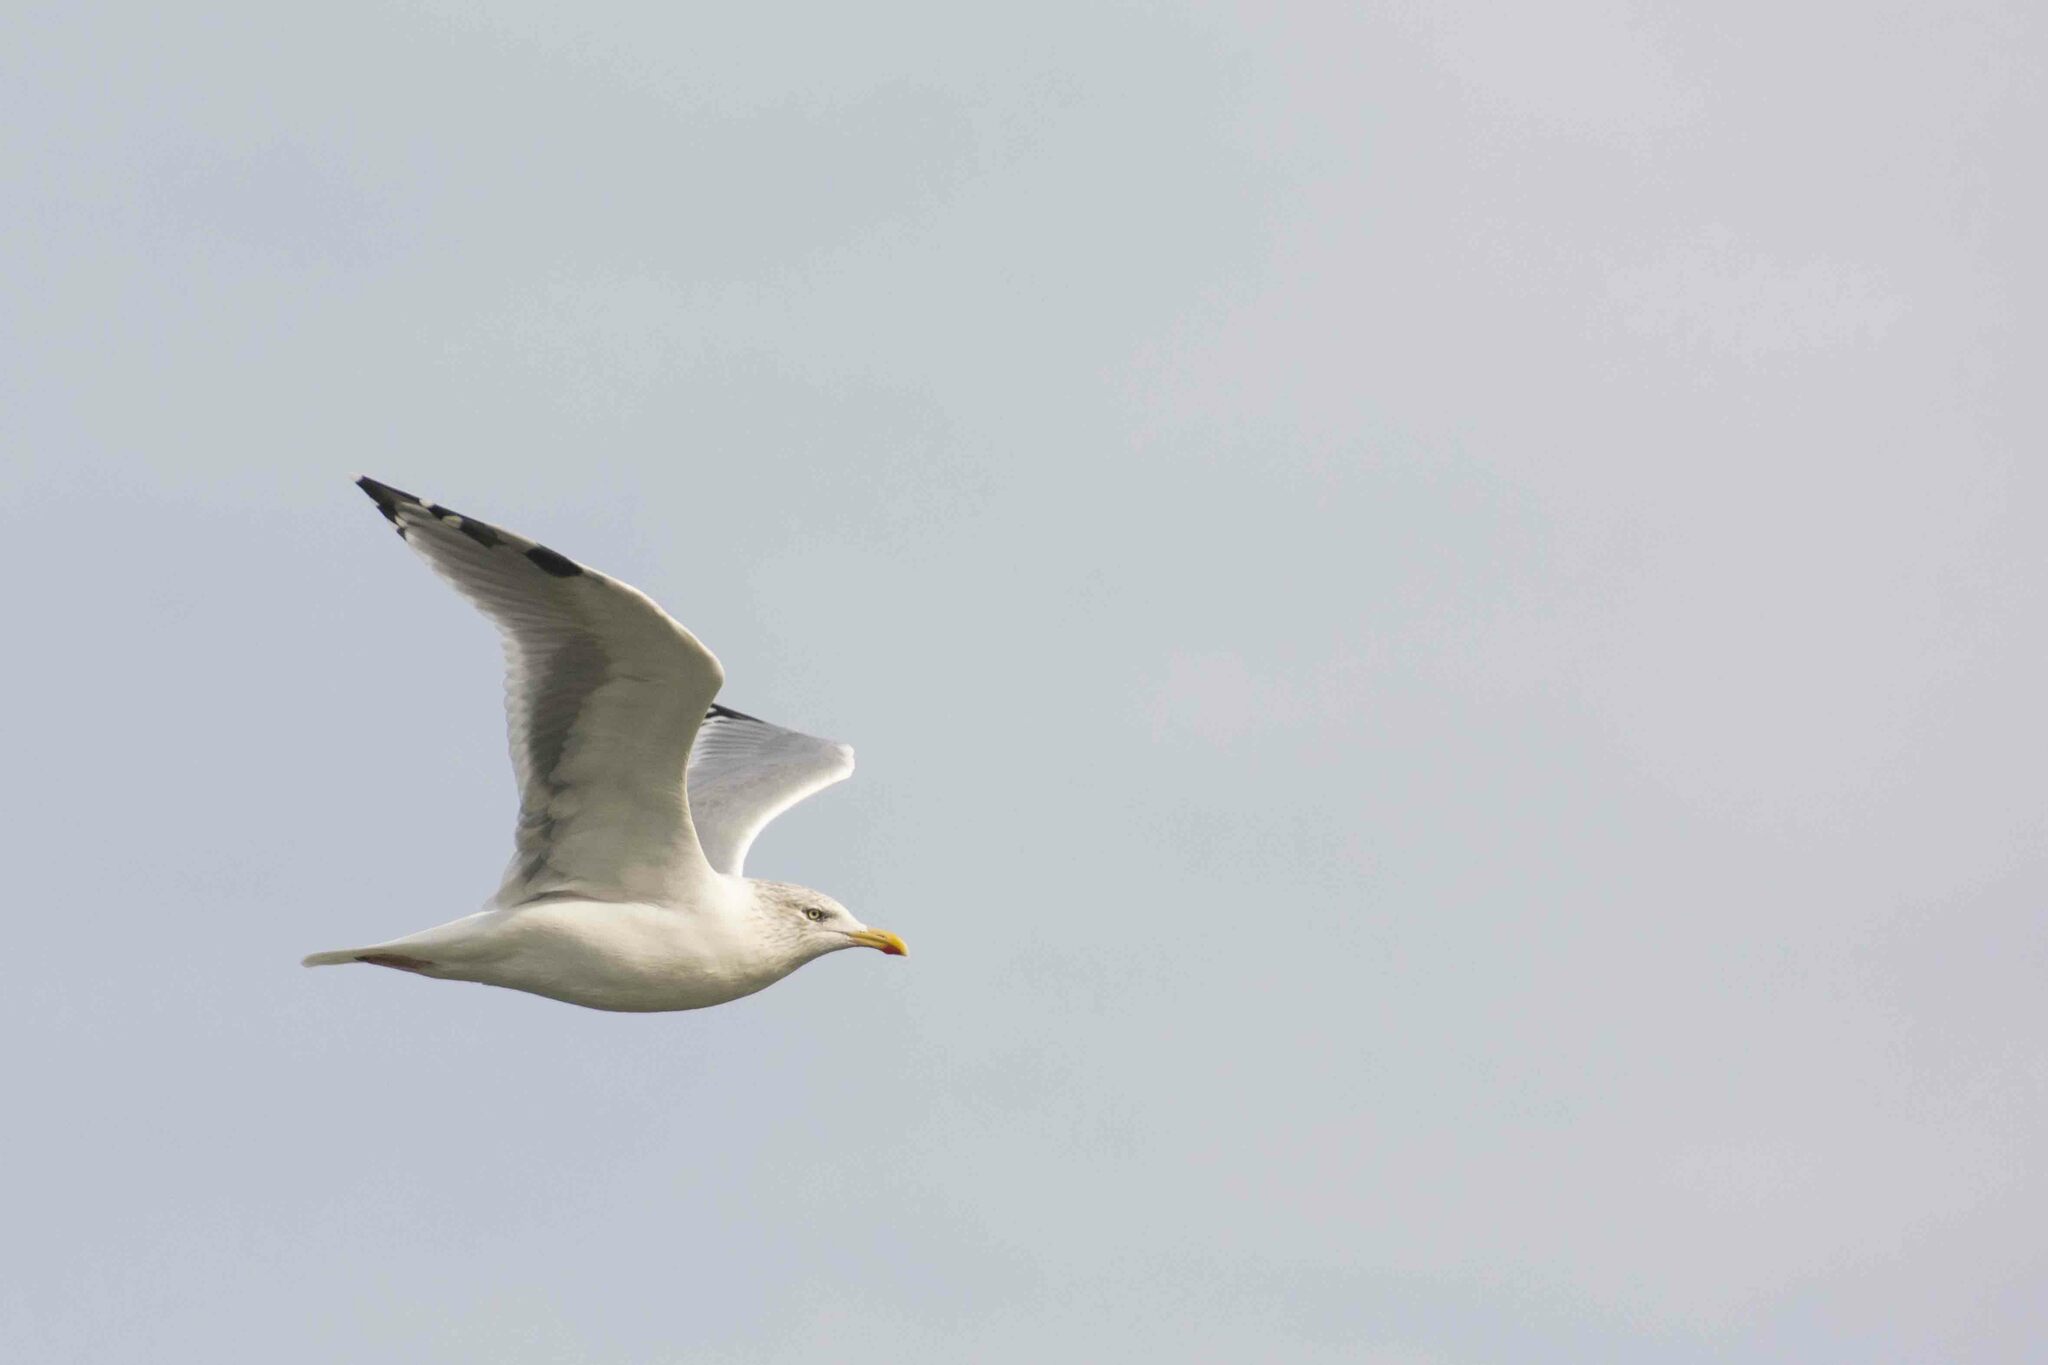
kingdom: Animalia
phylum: Chordata
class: Aves
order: Charadriiformes
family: Laridae
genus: Larus
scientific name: Larus argentatus
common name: Herring gull
